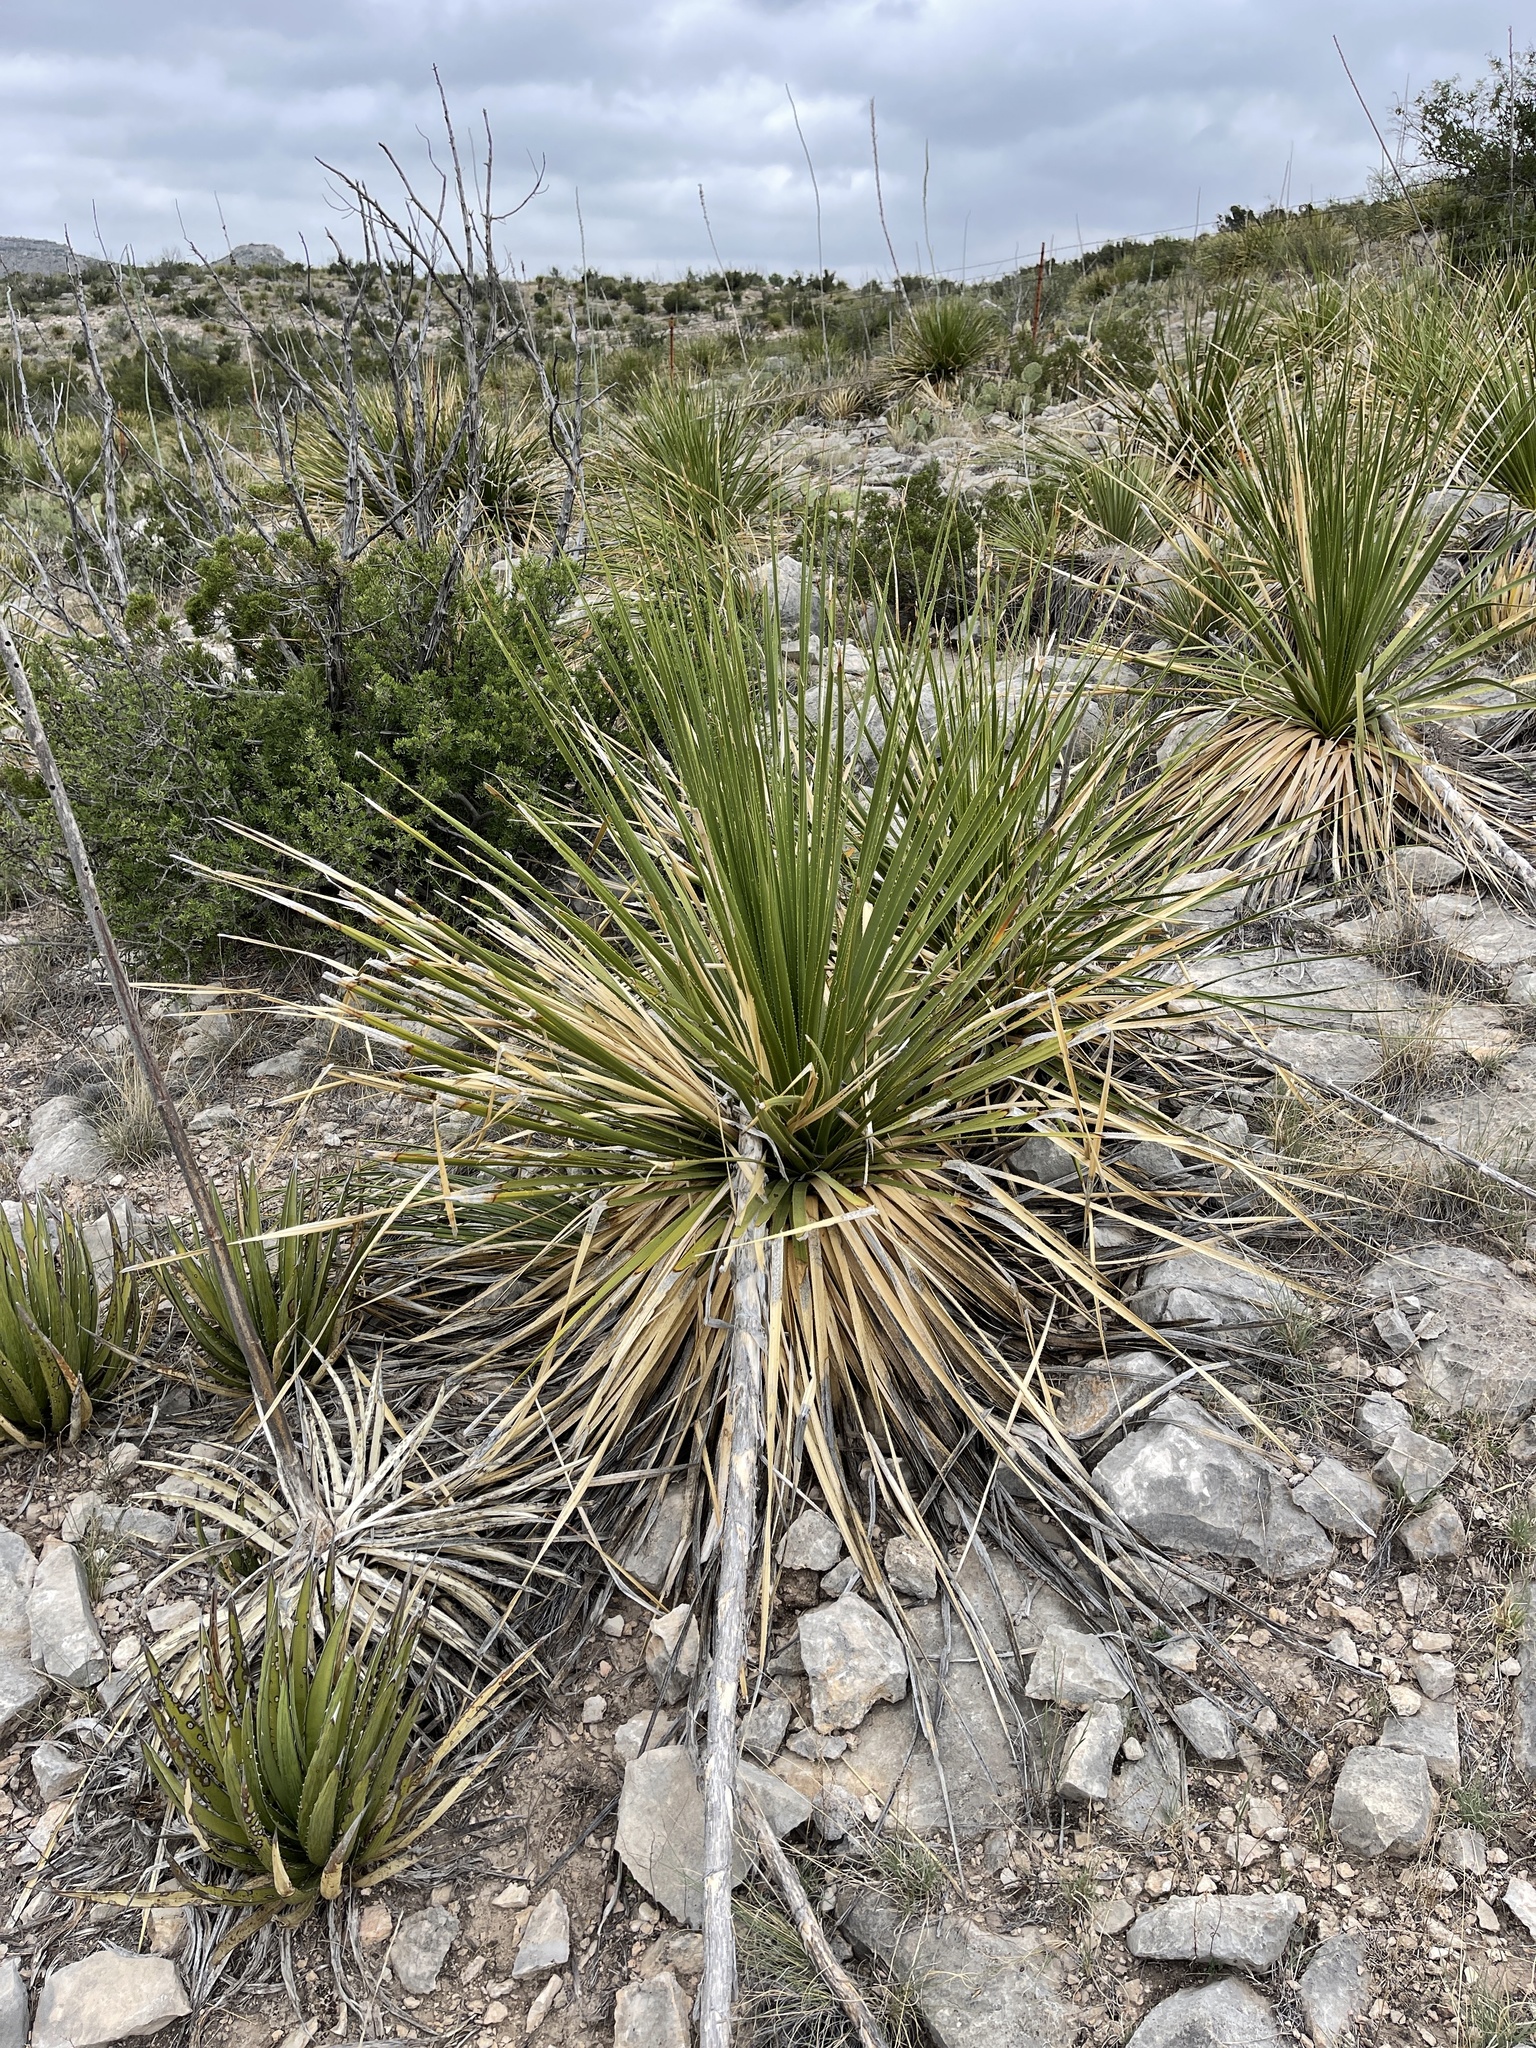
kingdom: Plantae
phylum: Tracheophyta
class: Liliopsida
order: Asparagales
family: Asparagaceae
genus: Dasylirion
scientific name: Dasylirion texanum
